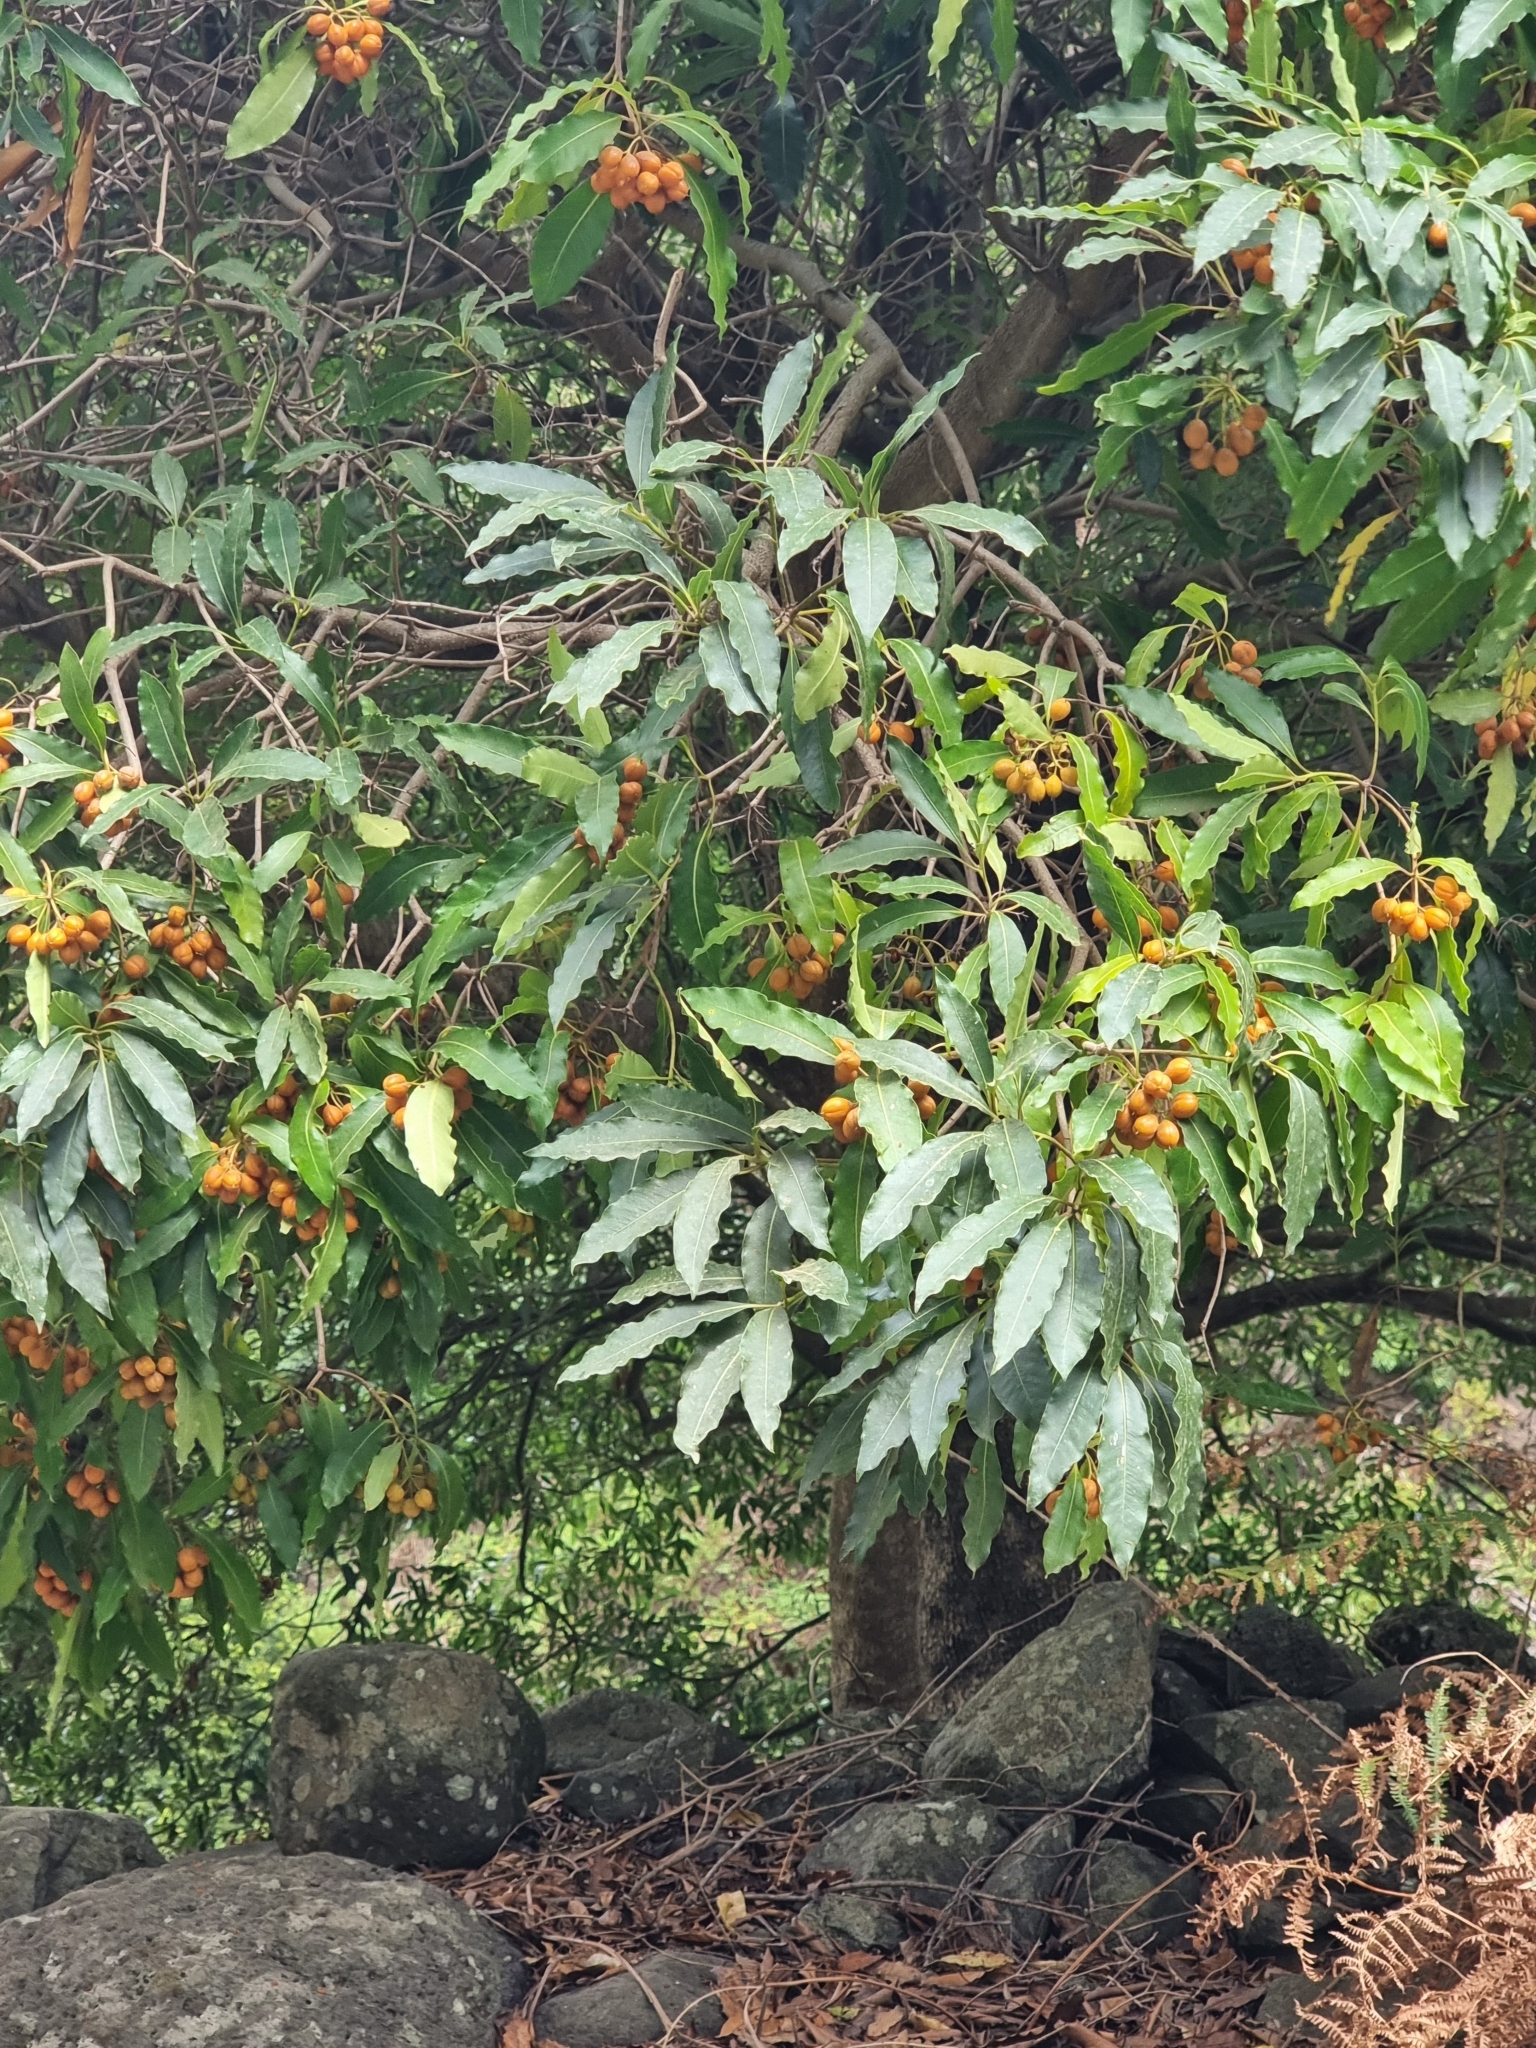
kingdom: Plantae
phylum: Tracheophyta
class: Magnoliopsida
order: Apiales
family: Pittosporaceae
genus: Pittosporum
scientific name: Pittosporum undulatum
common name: Australian cheesewood
